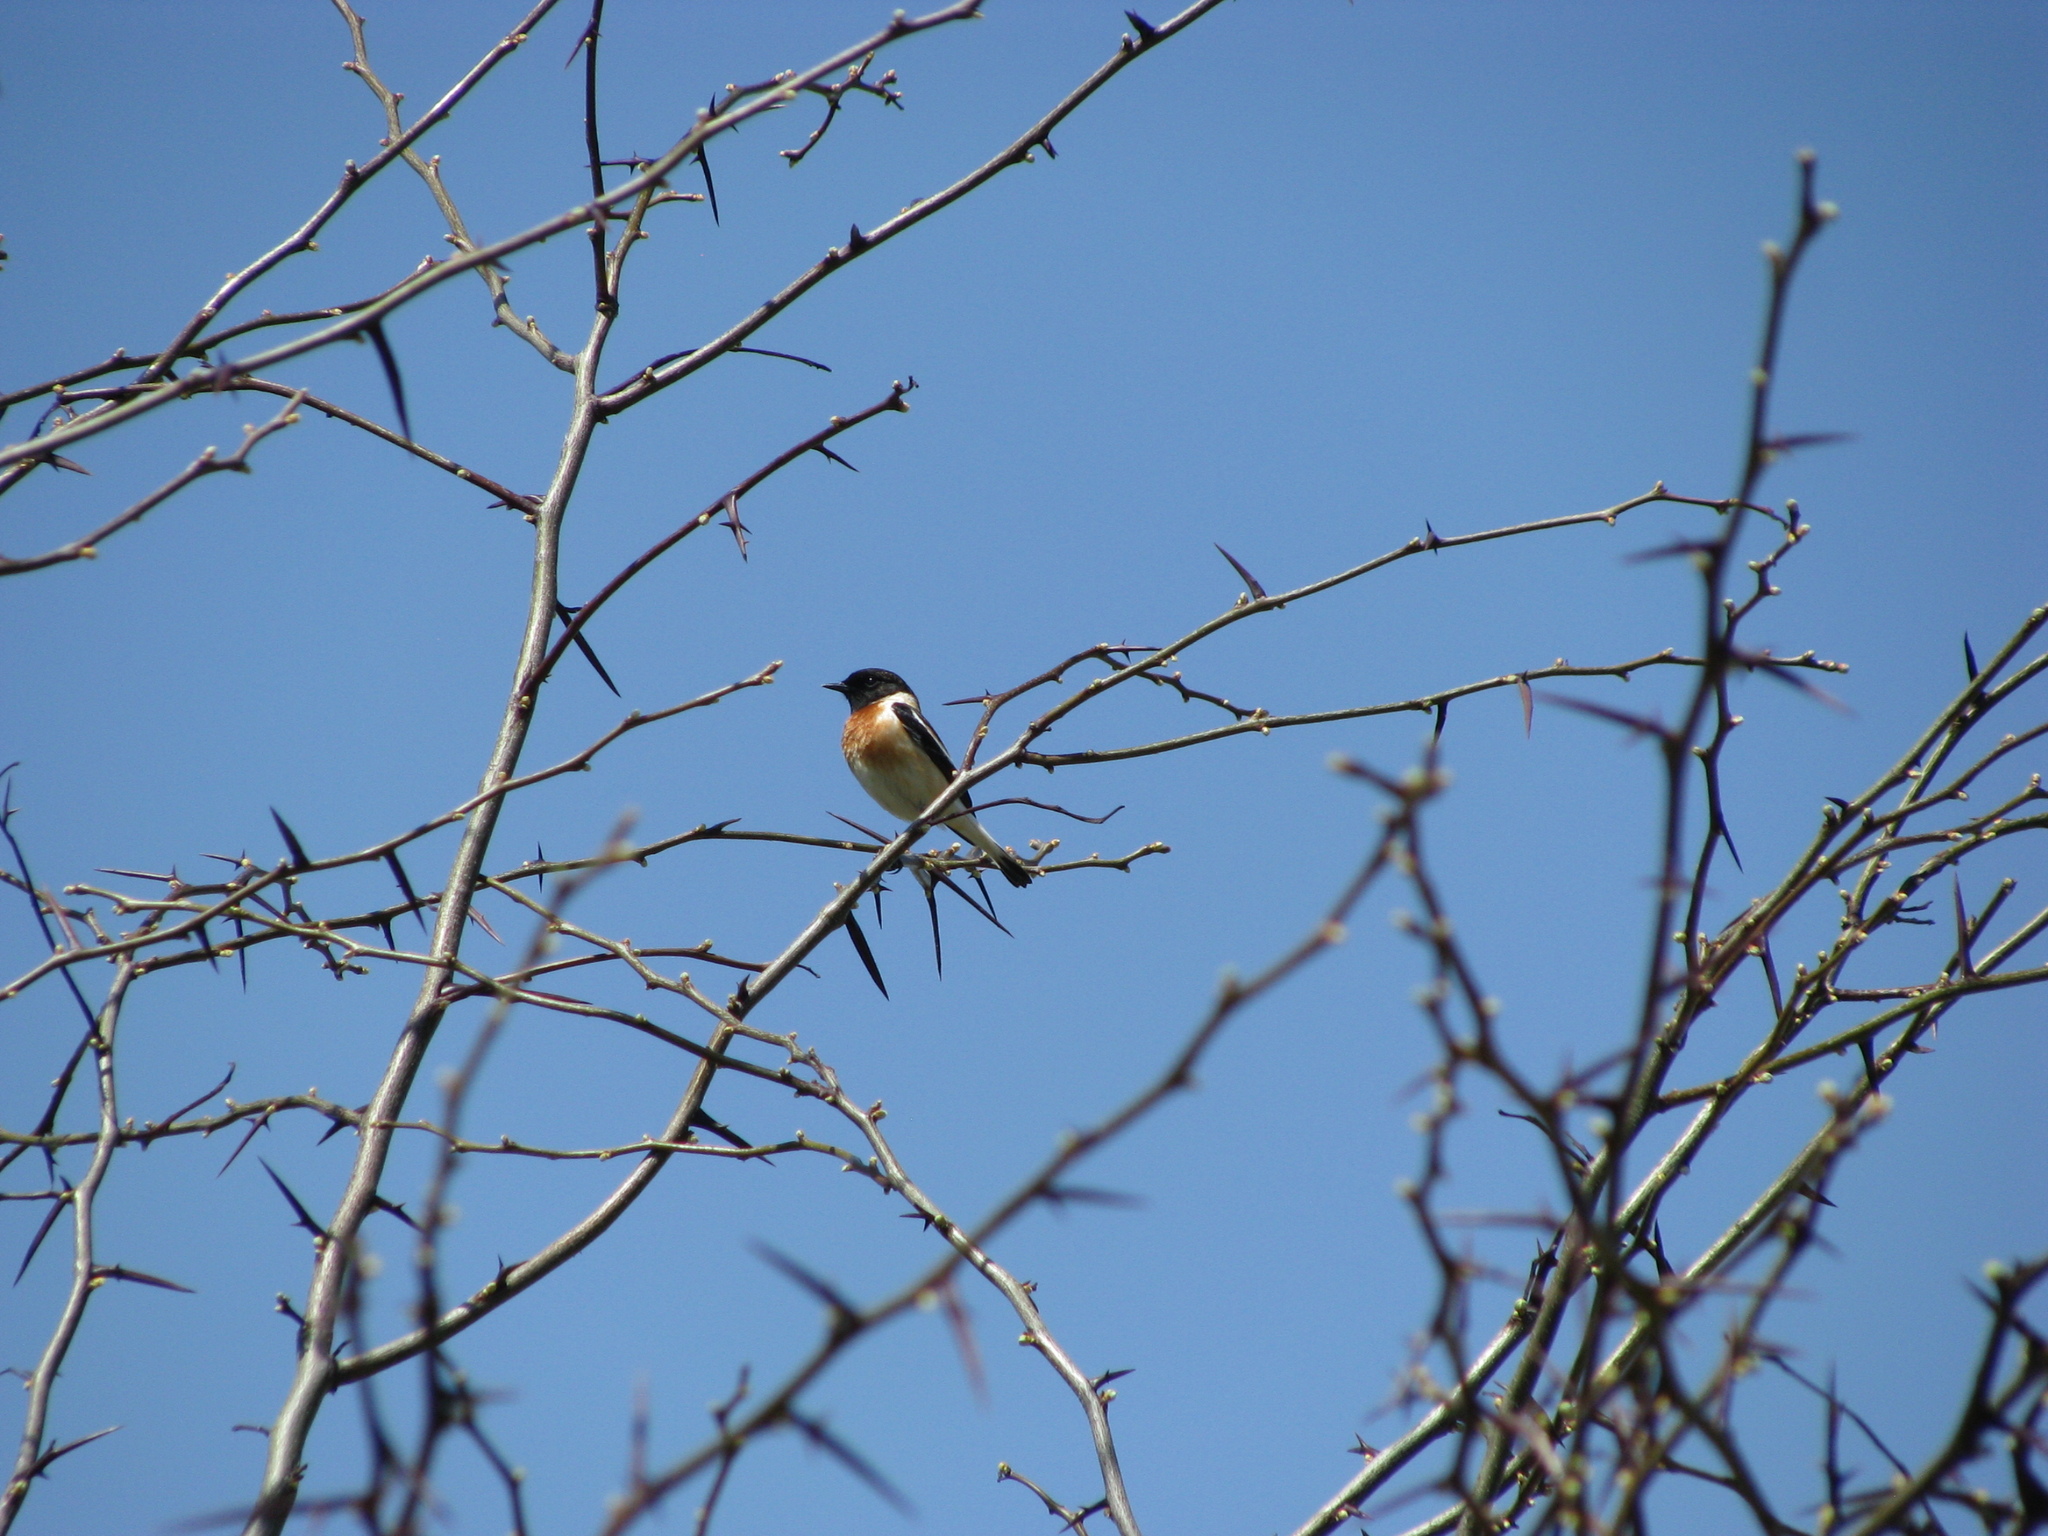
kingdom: Animalia
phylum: Chordata
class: Aves
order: Passeriformes
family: Muscicapidae
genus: Saxicola
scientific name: Saxicola maurus
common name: Siberian stonechat
